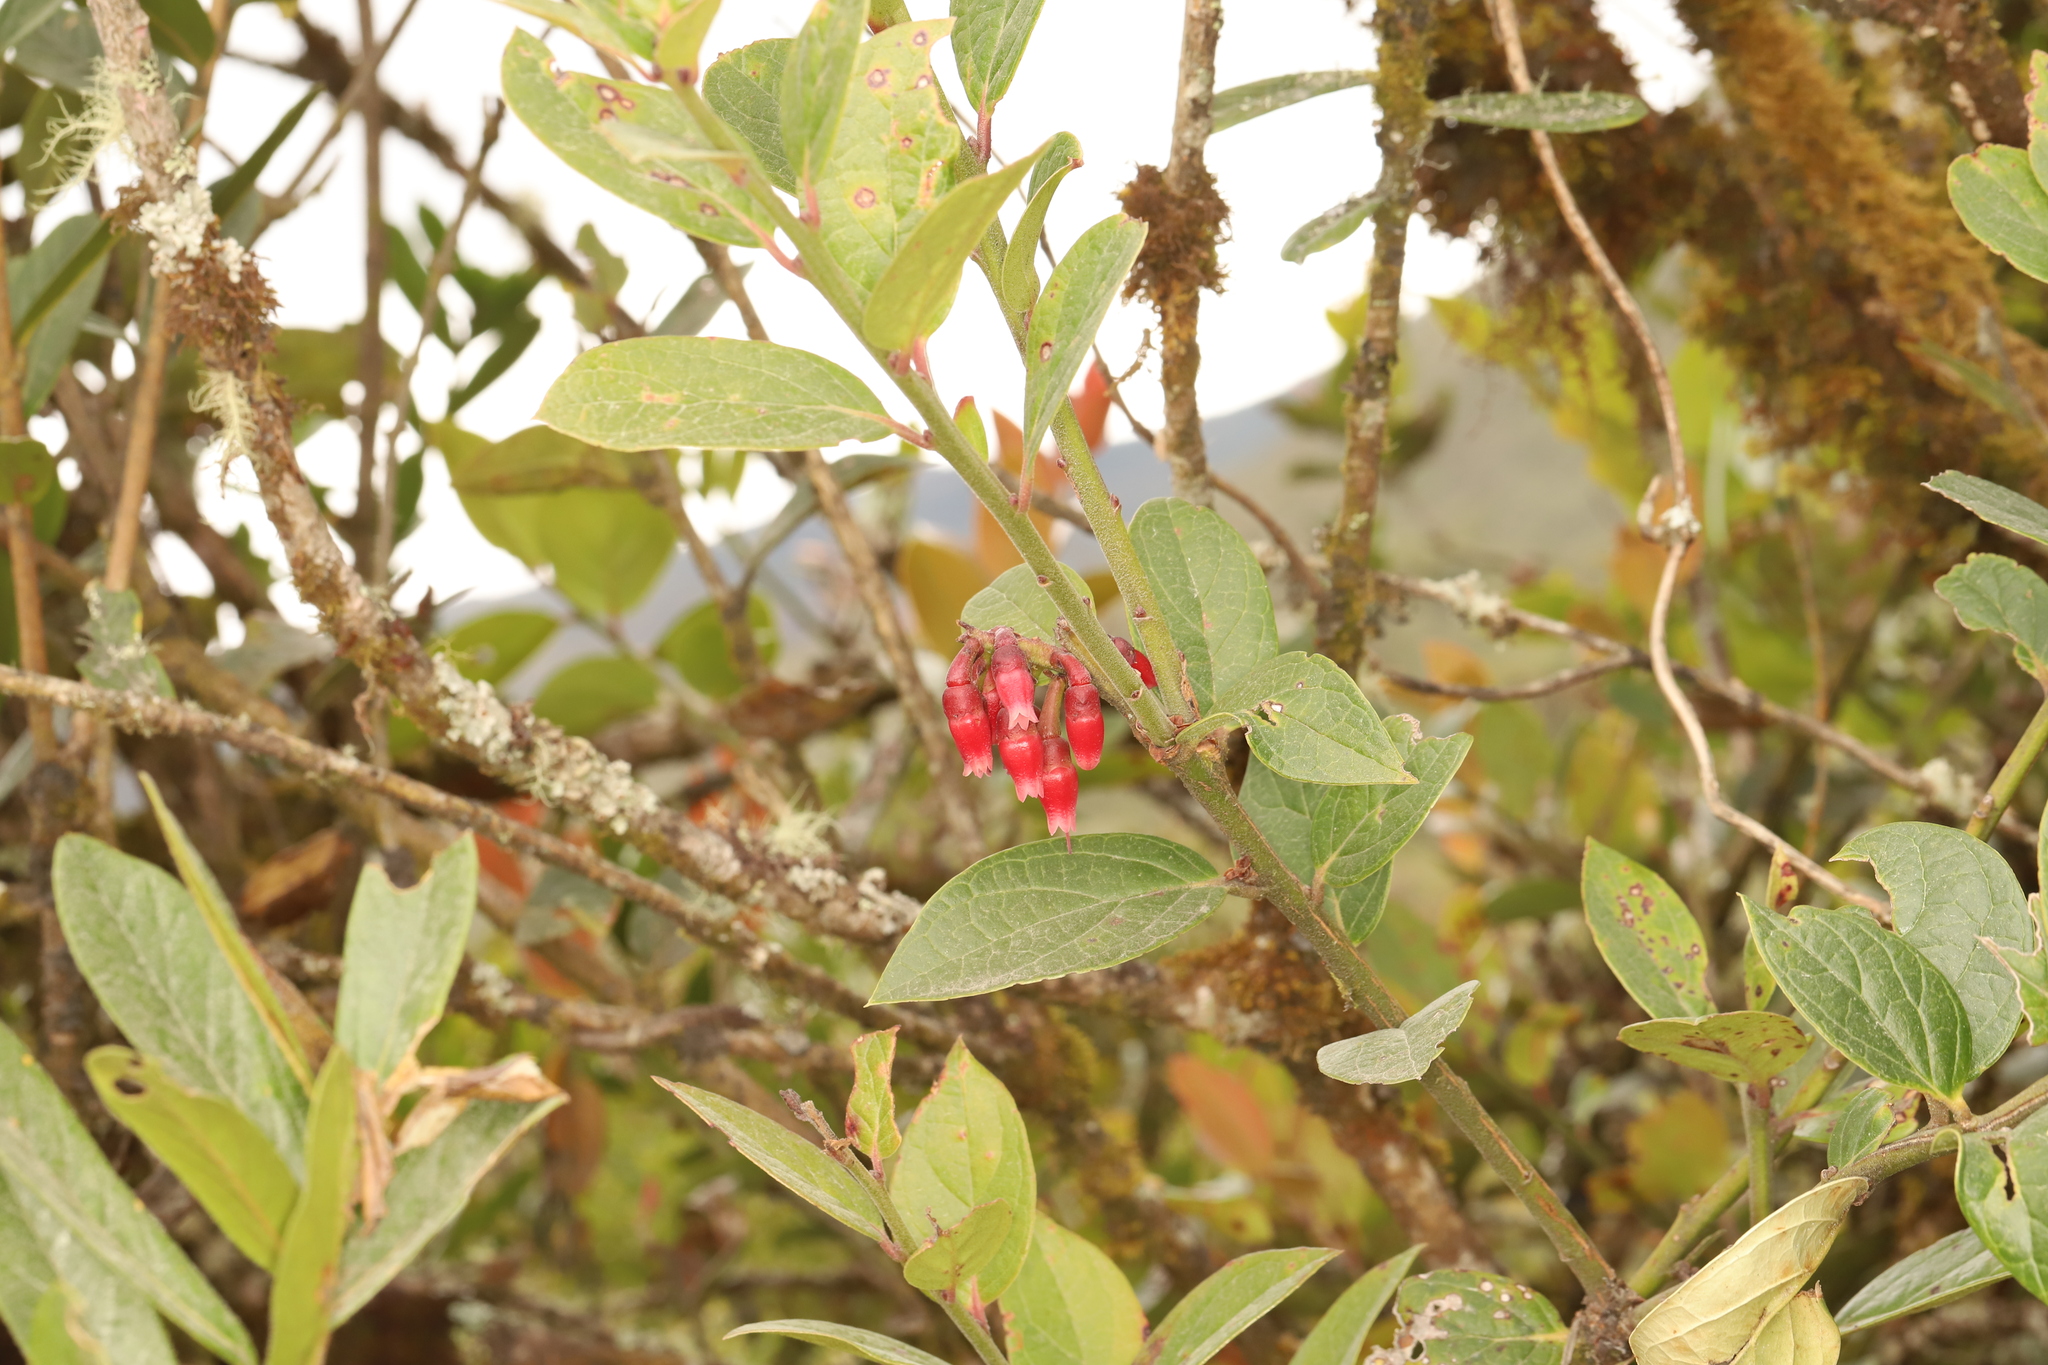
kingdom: Plantae
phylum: Tracheophyta
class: Magnoliopsida
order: Ericales
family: Ericaceae
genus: Macleania
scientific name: Macleania rupestris
